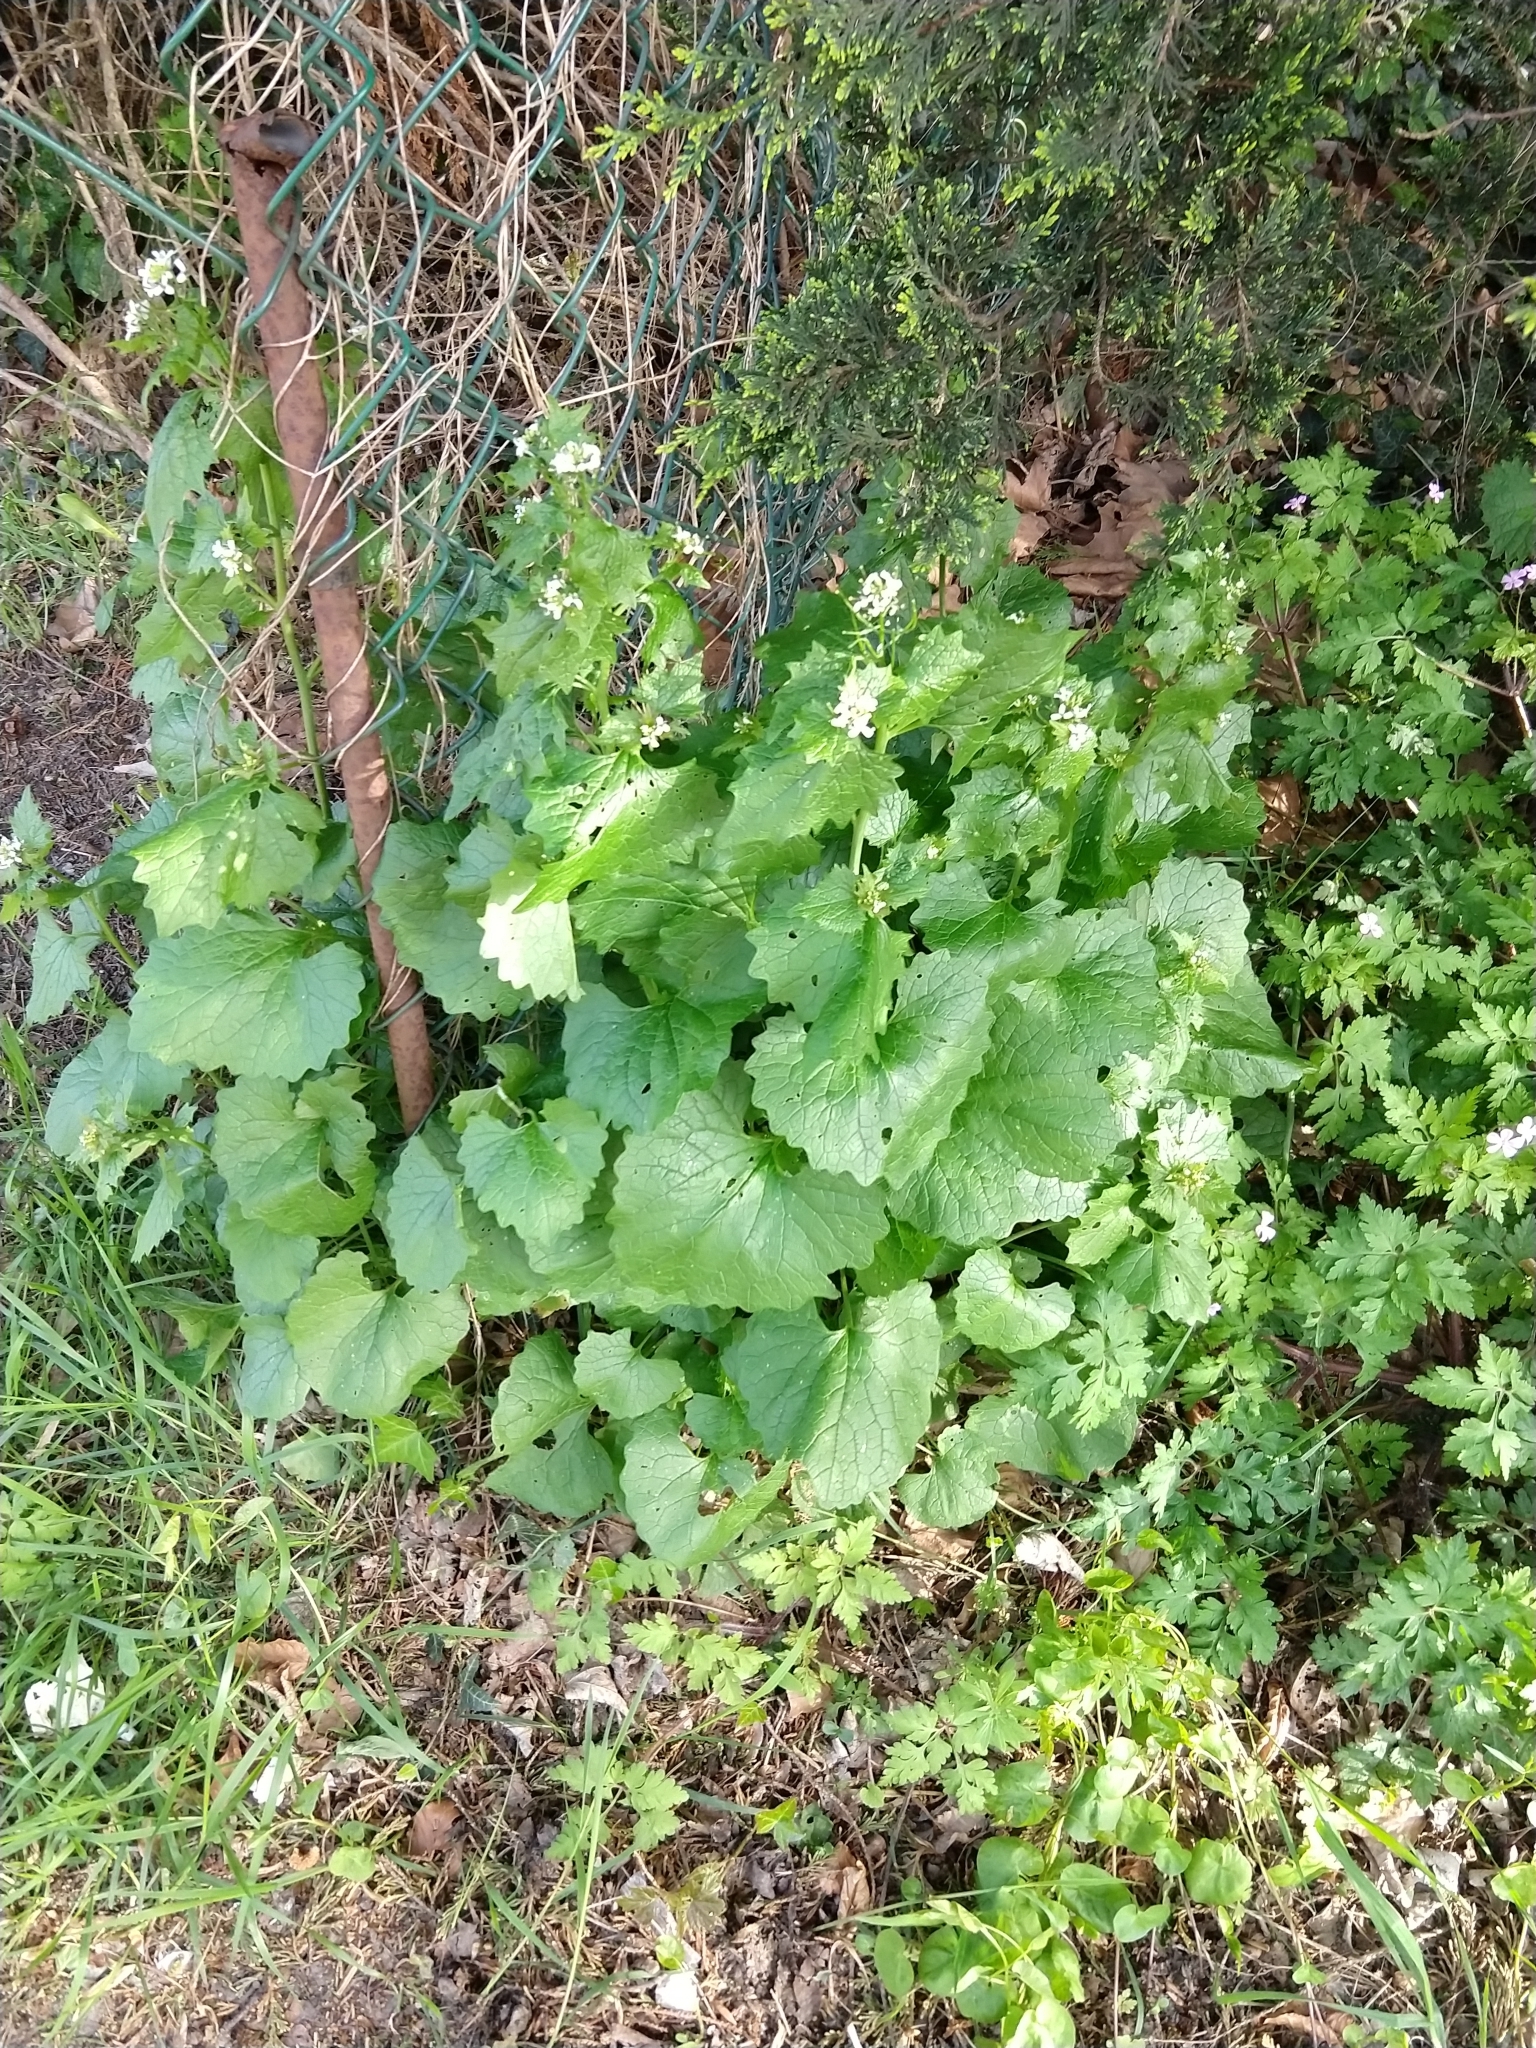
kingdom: Plantae
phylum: Tracheophyta
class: Magnoliopsida
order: Brassicales
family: Brassicaceae
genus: Alliaria
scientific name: Alliaria petiolata
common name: Garlic mustard
